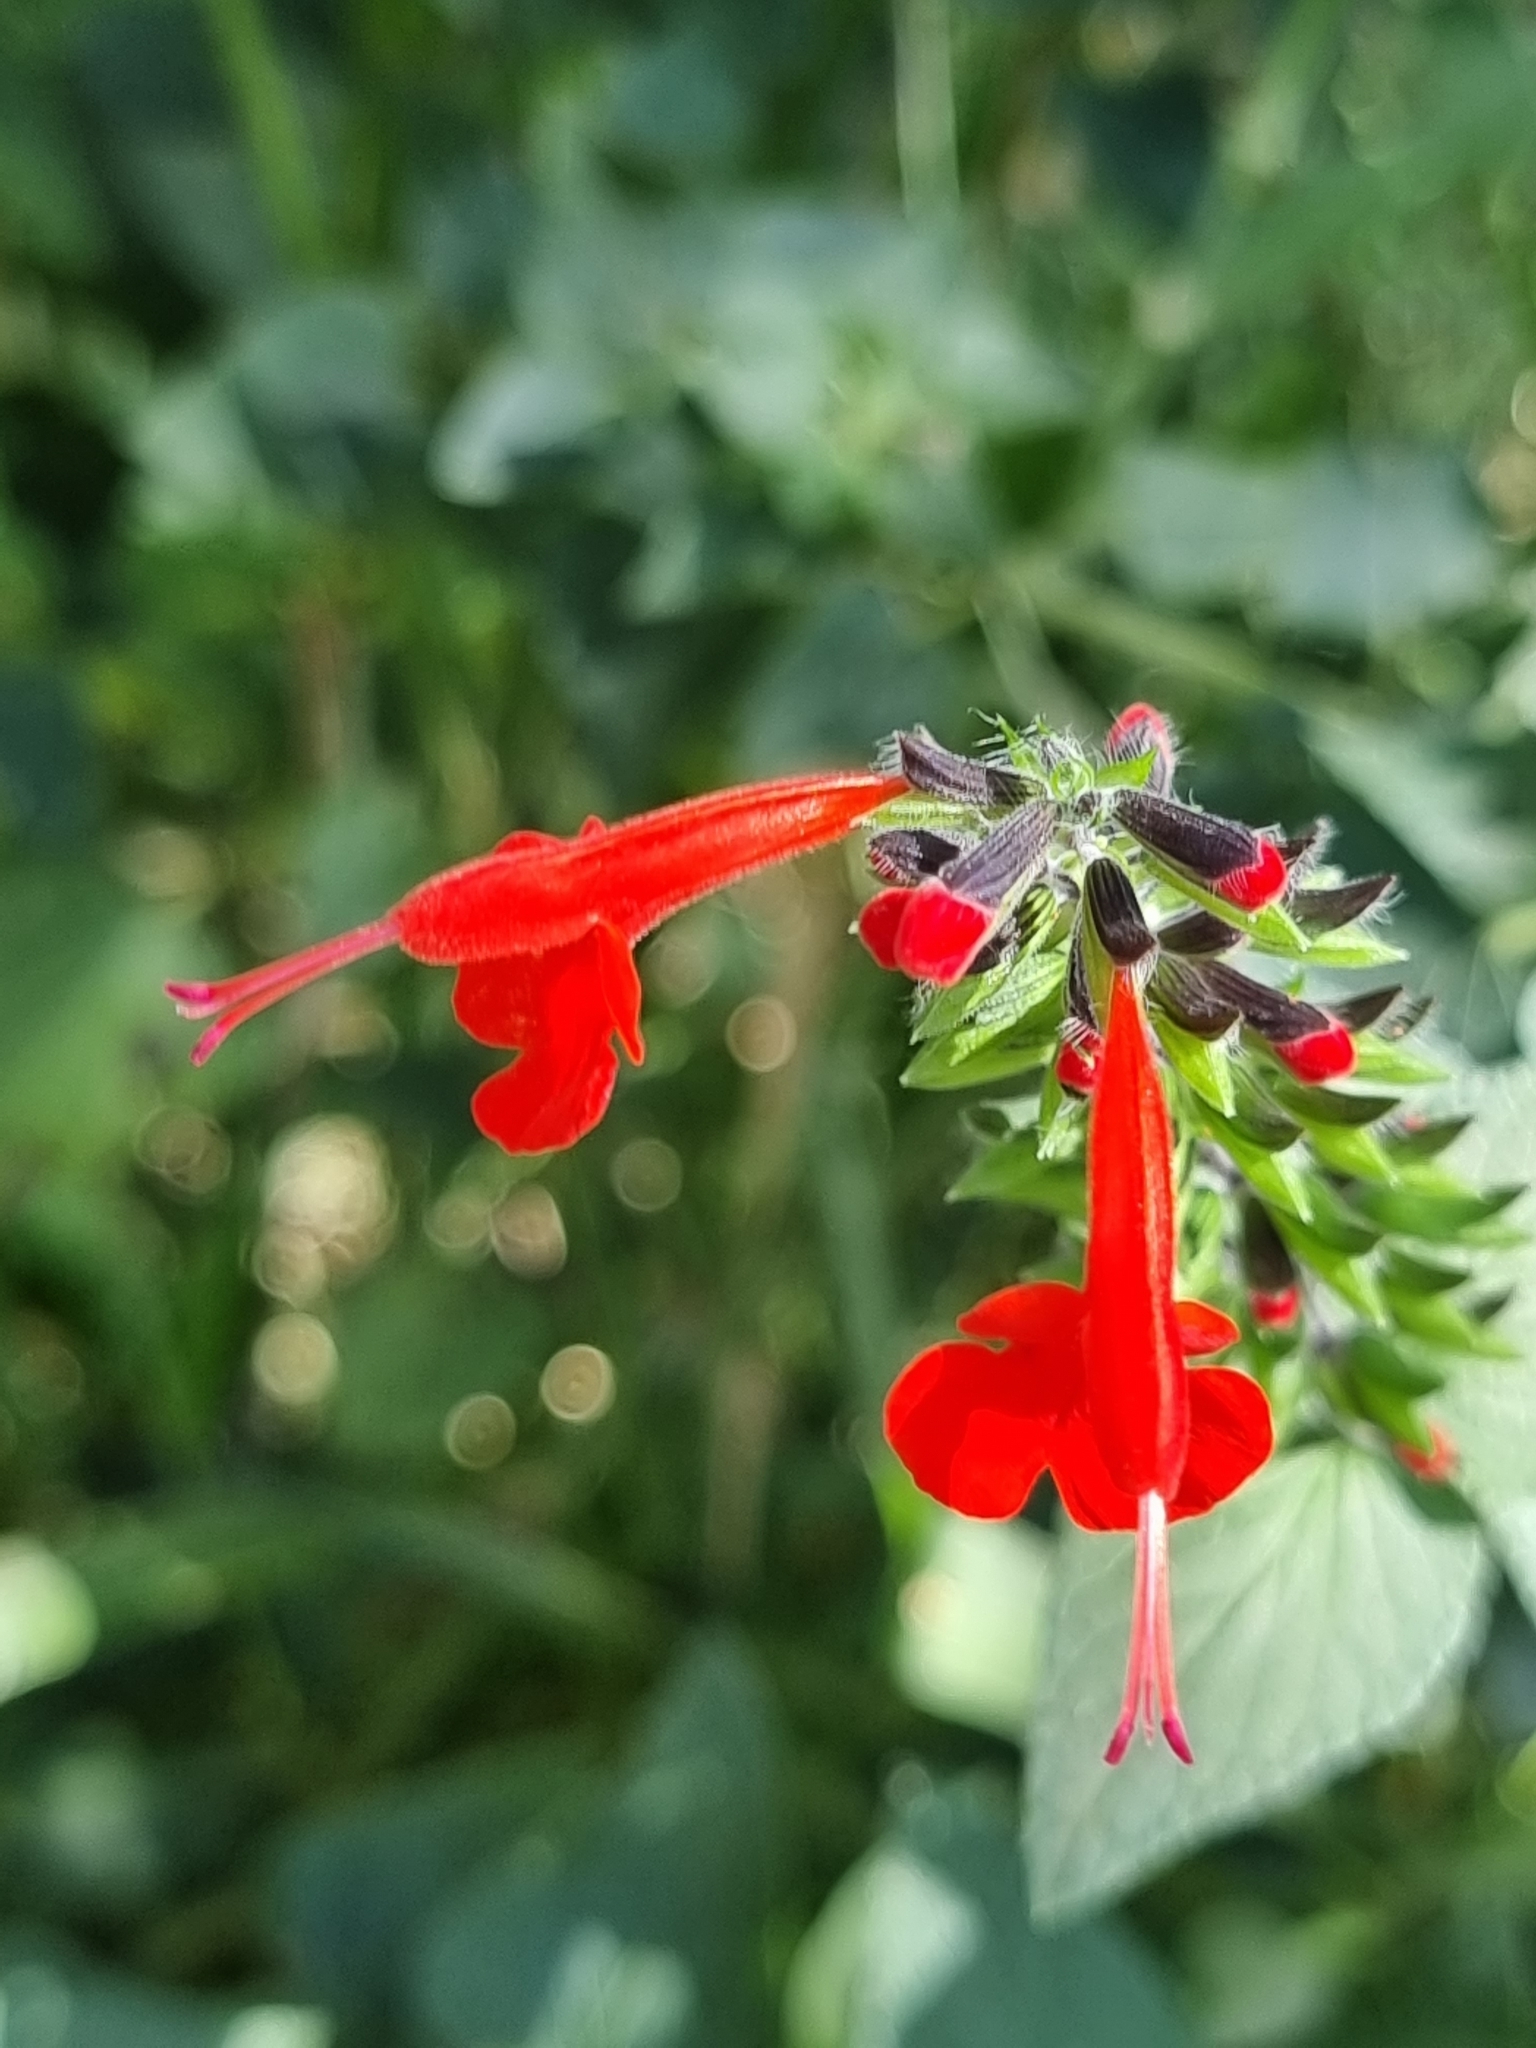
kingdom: Plantae
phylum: Tracheophyta
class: Magnoliopsida
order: Lamiales
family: Lamiaceae
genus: Salvia
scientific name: Salvia coccinea
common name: Blood sage
